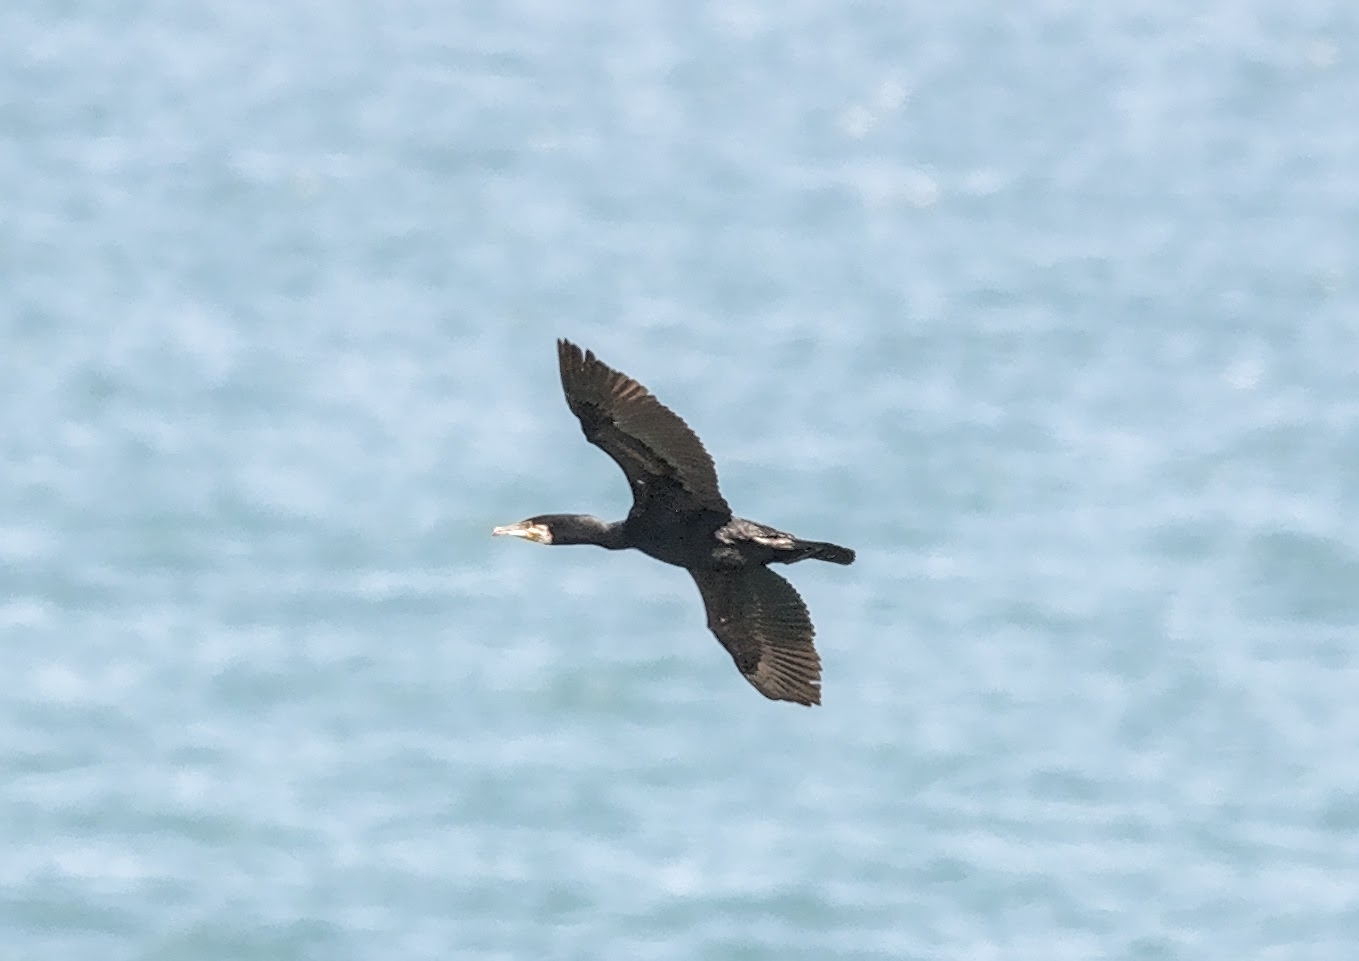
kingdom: Animalia
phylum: Chordata
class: Aves
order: Suliformes
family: Phalacrocoracidae
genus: Phalacrocorax
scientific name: Phalacrocorax carbo
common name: Great cormorant
